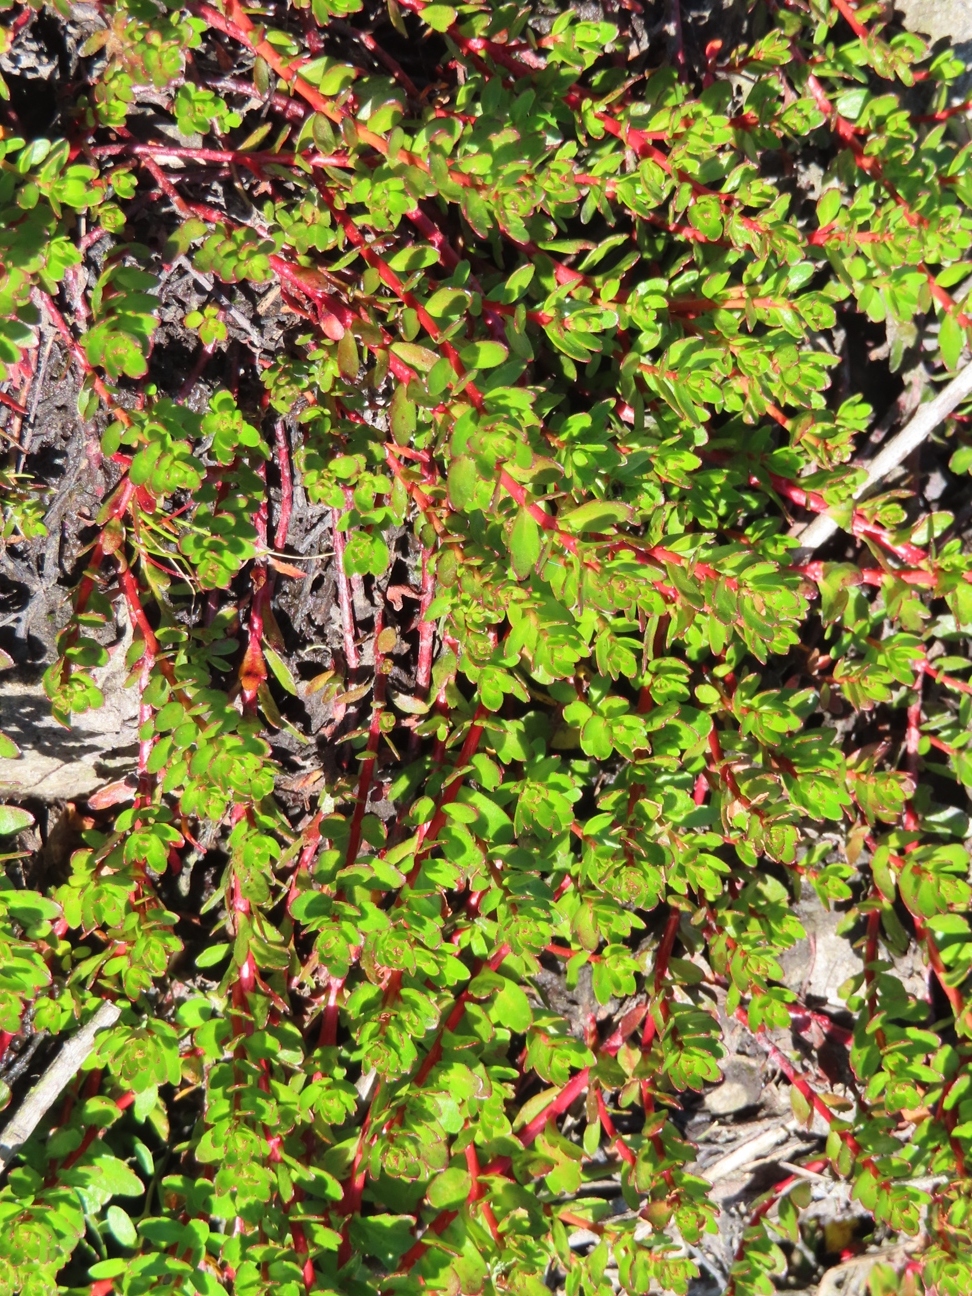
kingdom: Plantae
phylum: Tracheophyta
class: Magnoliopsida
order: Saxifragales
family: Haloragaceae
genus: Laurembergia
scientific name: Laurembergia repens
